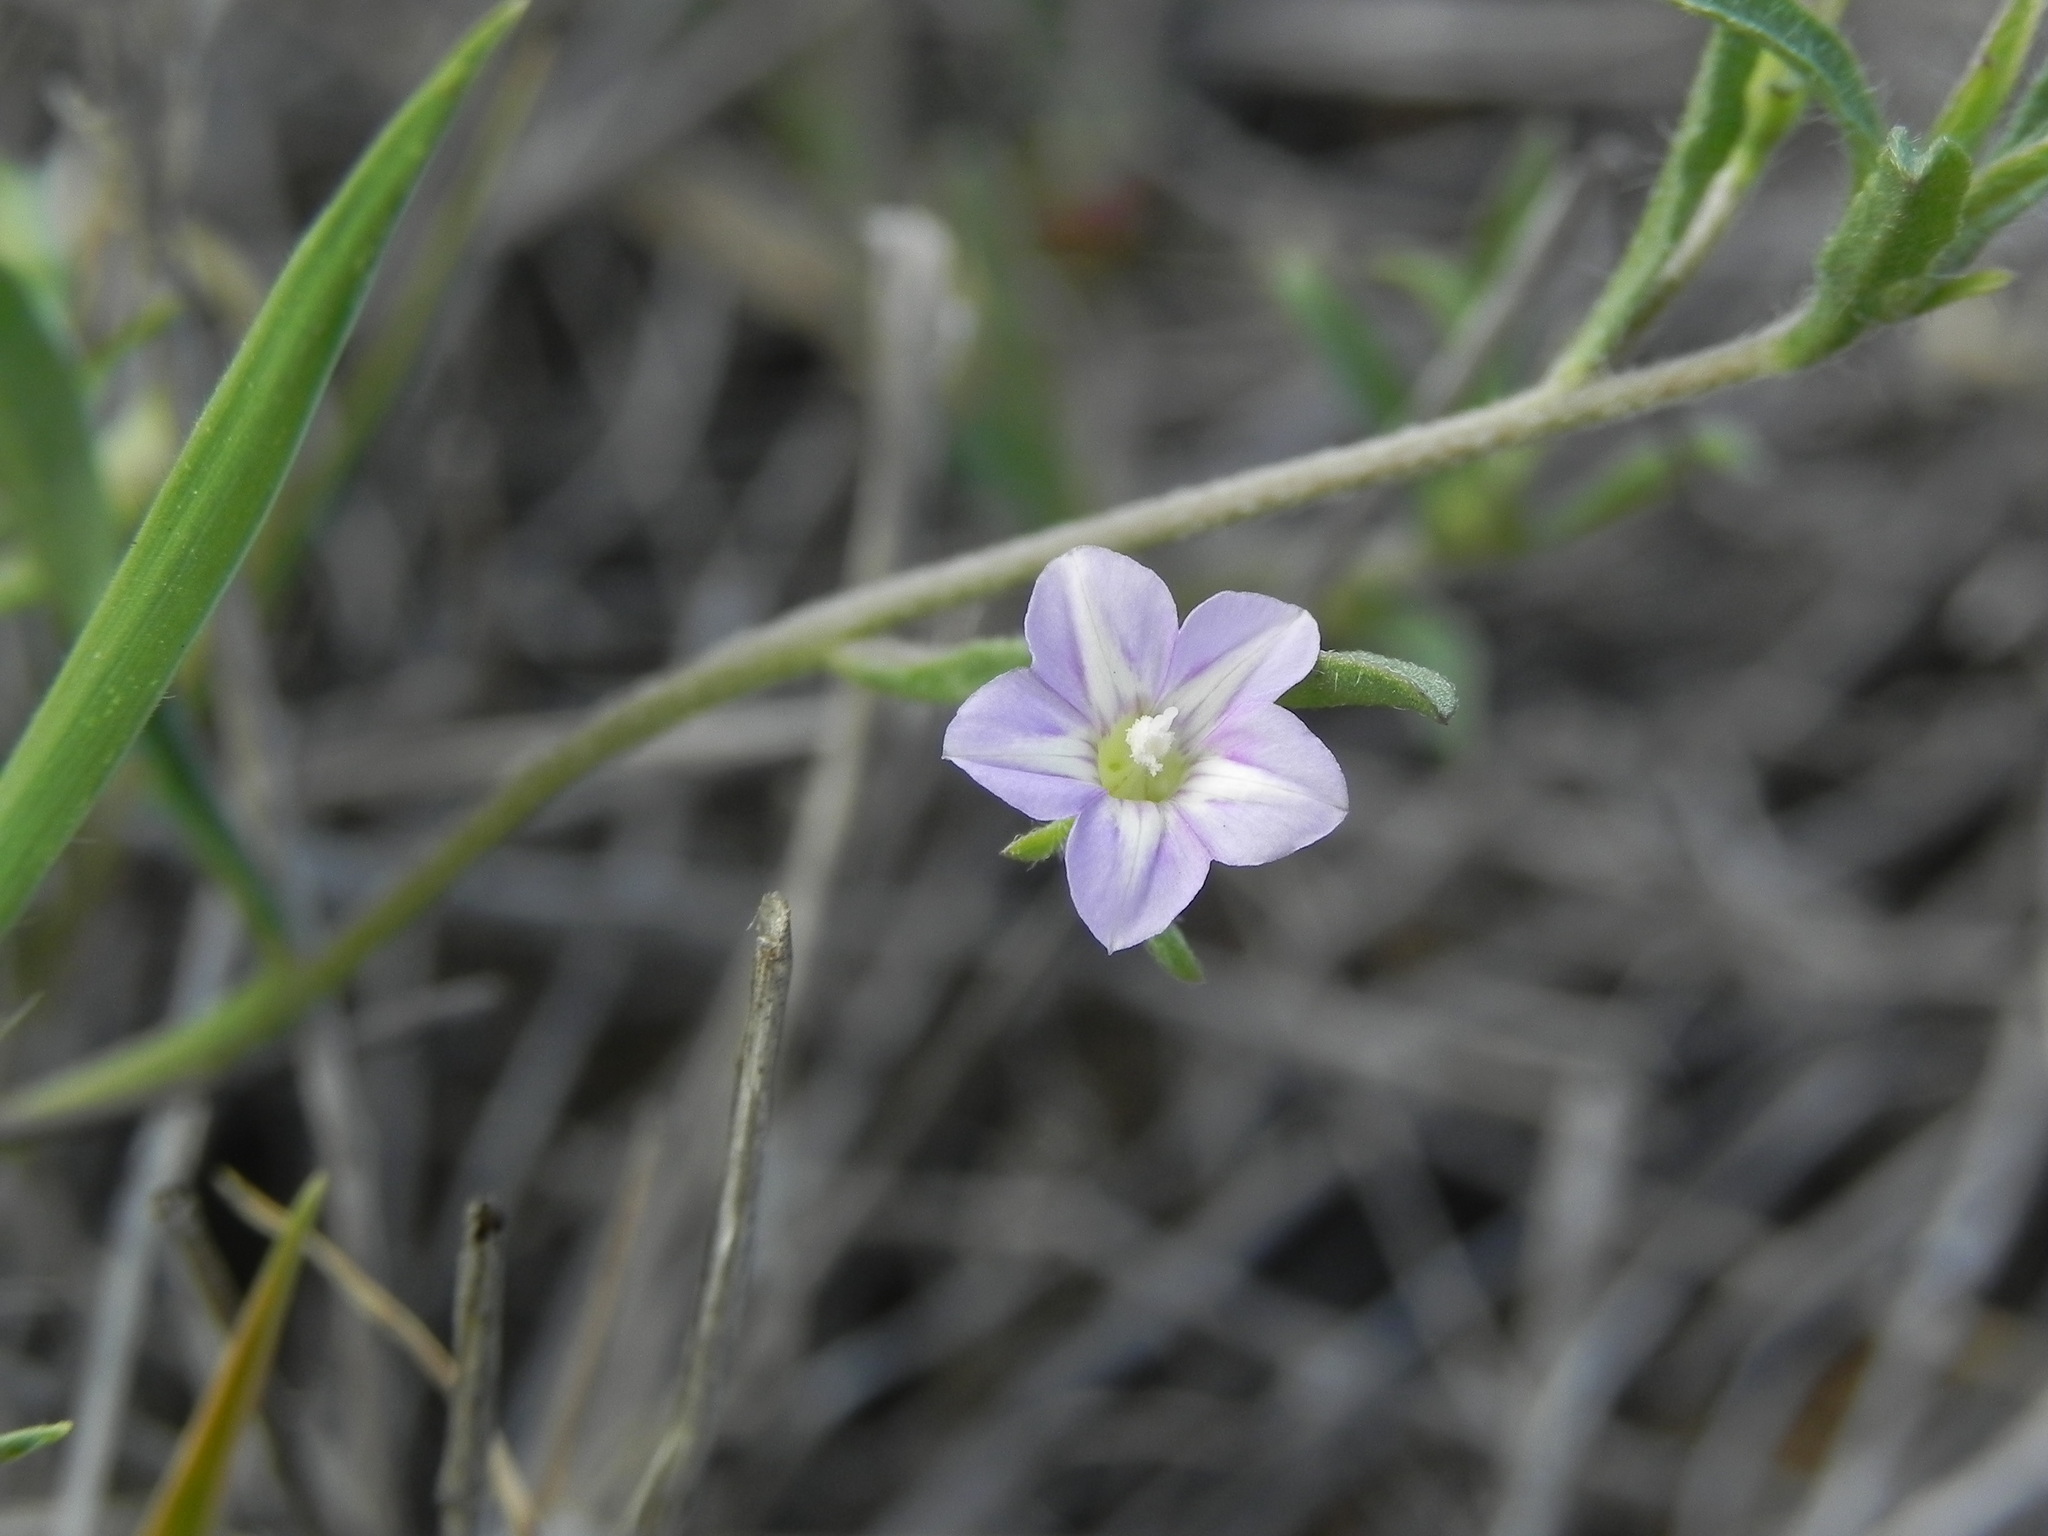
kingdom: Plantae
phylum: Tracheophyta
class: Magnoliopsida
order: Solanales
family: Convolvulaceae
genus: Convolvulus
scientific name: Convolvulus simulans
